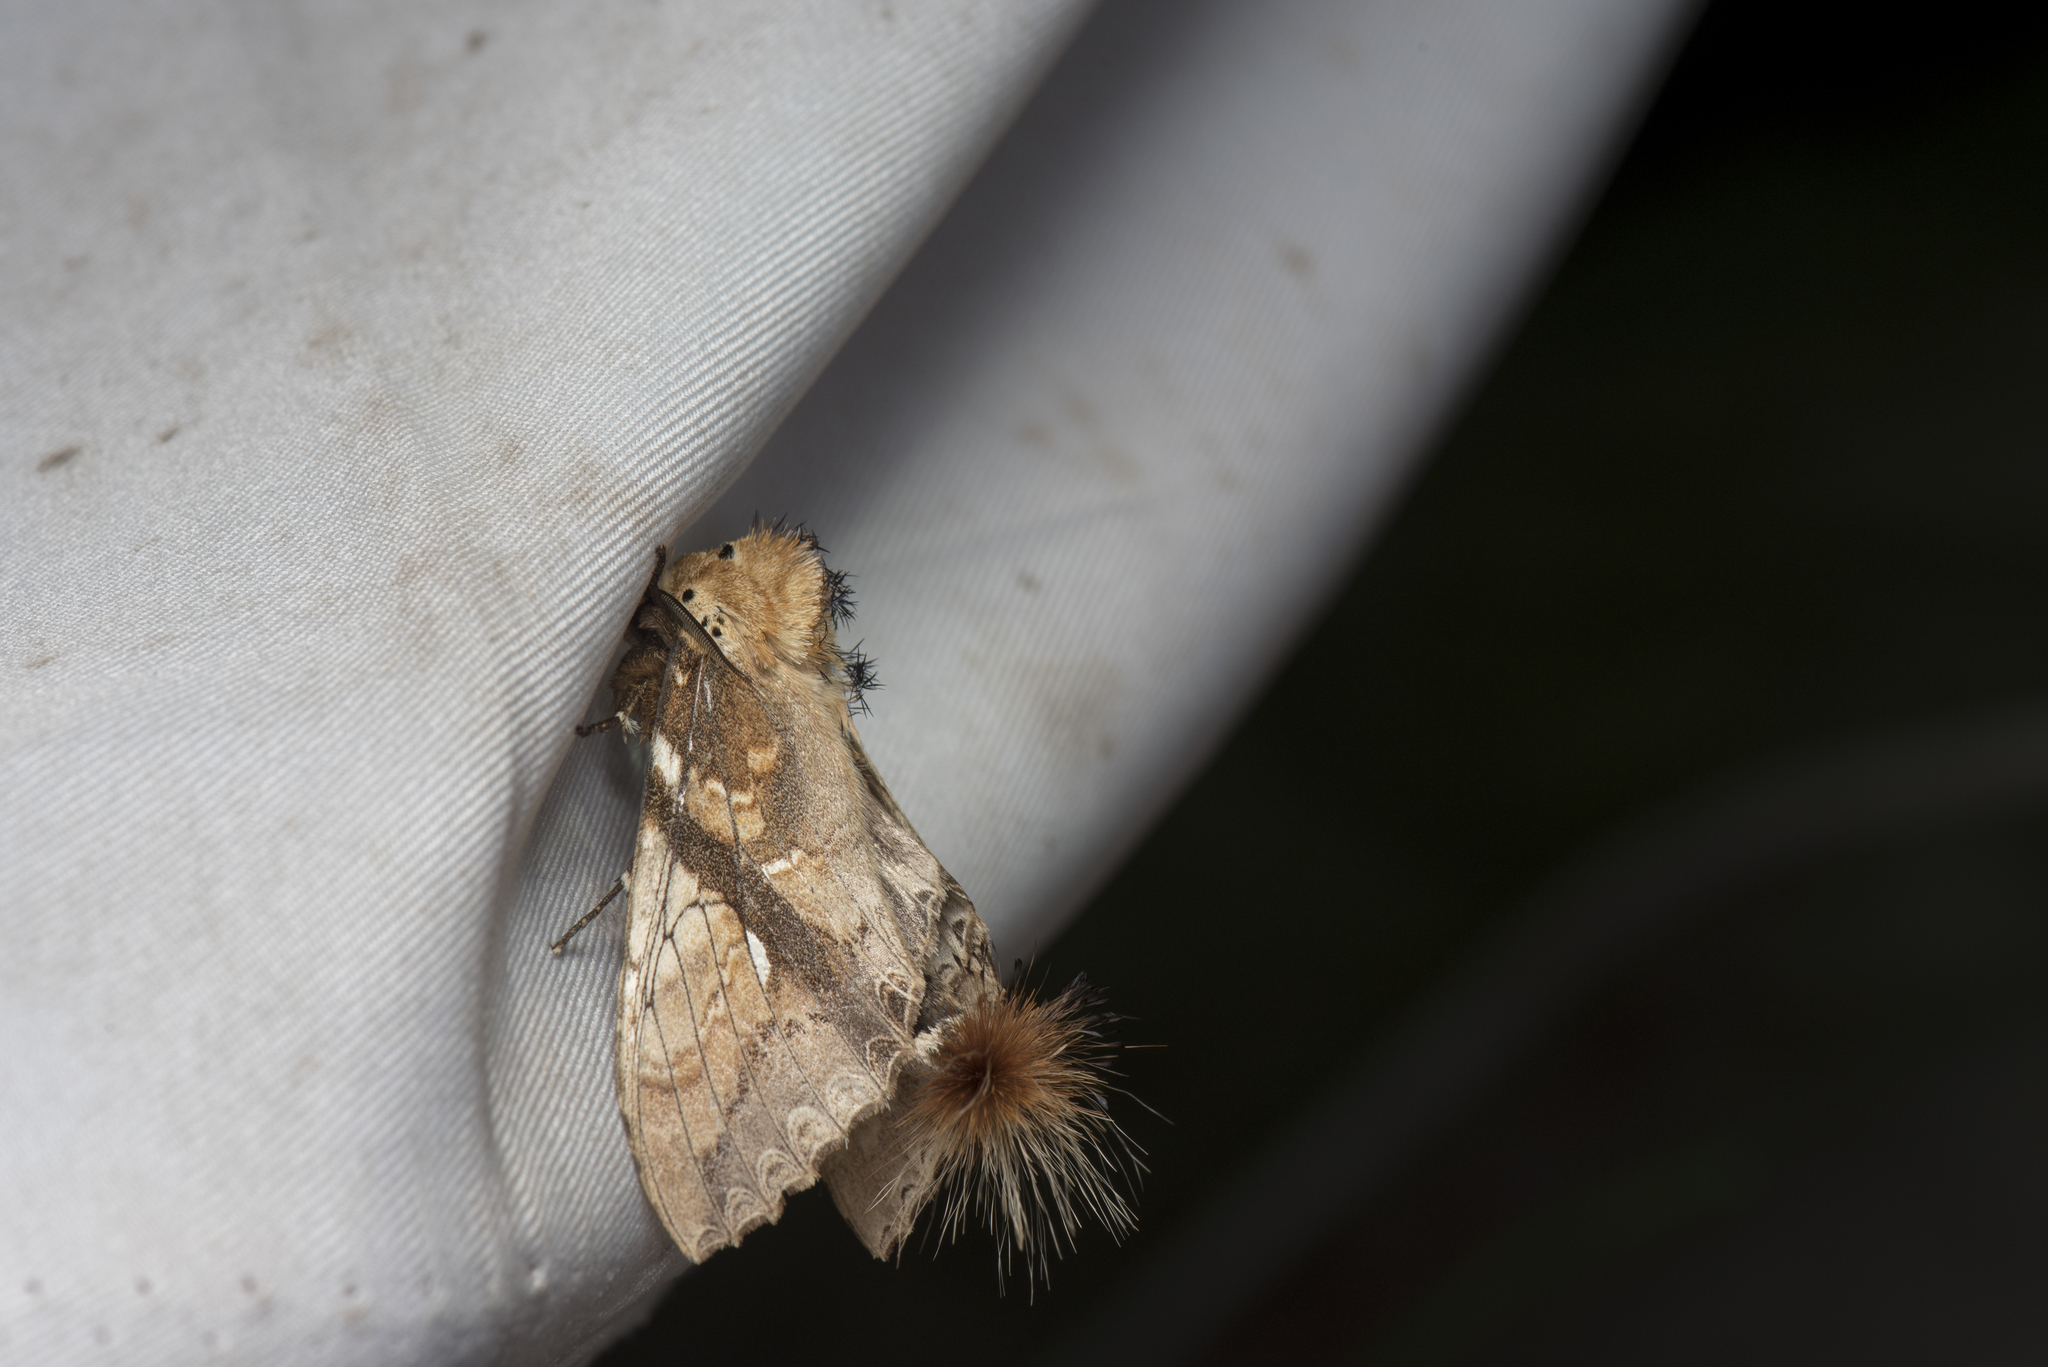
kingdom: Animalia
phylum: Arthropoda
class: Insecta
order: Lepidoptera
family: Notodontidae
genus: Dudusa
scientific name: Dudusa nobilis
